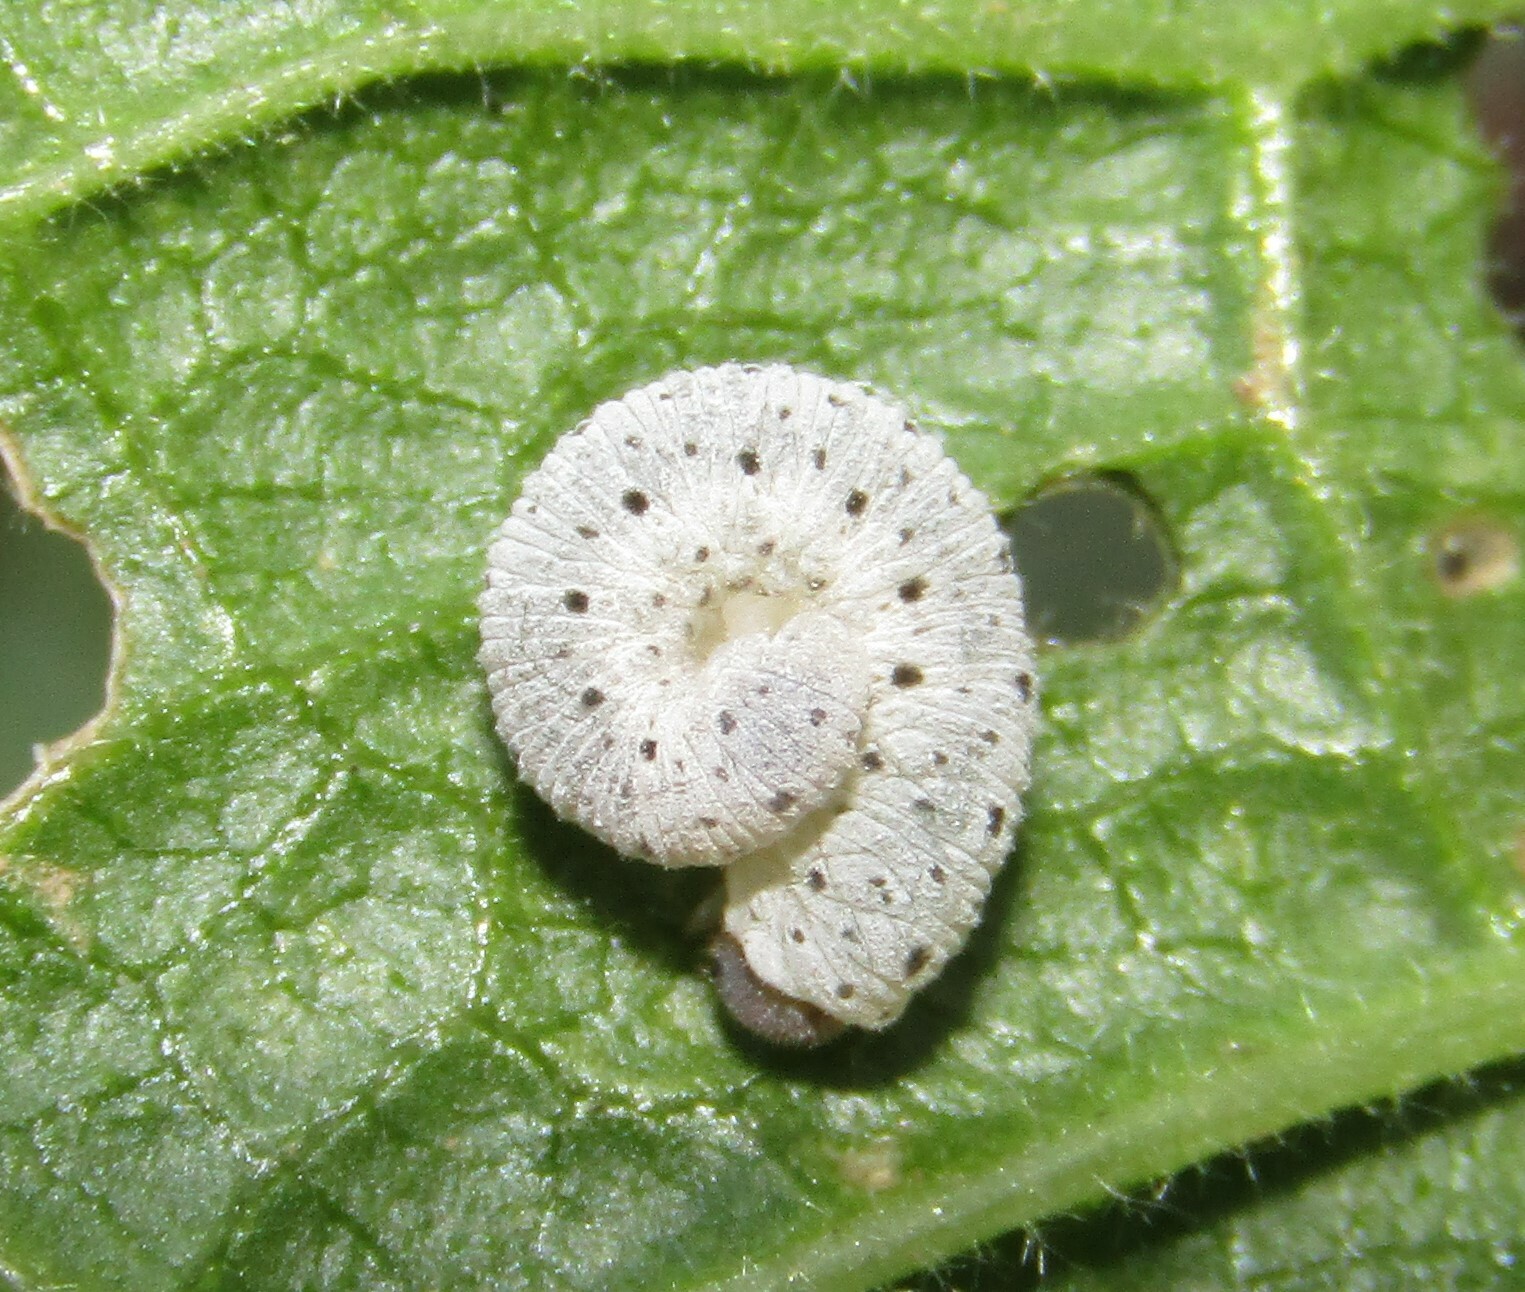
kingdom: Animalia
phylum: Arthropoda
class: Insecta
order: Hymenoptera
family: Tenthredinidae
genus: Tenthredo
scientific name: Tenthredo scrophulariae
